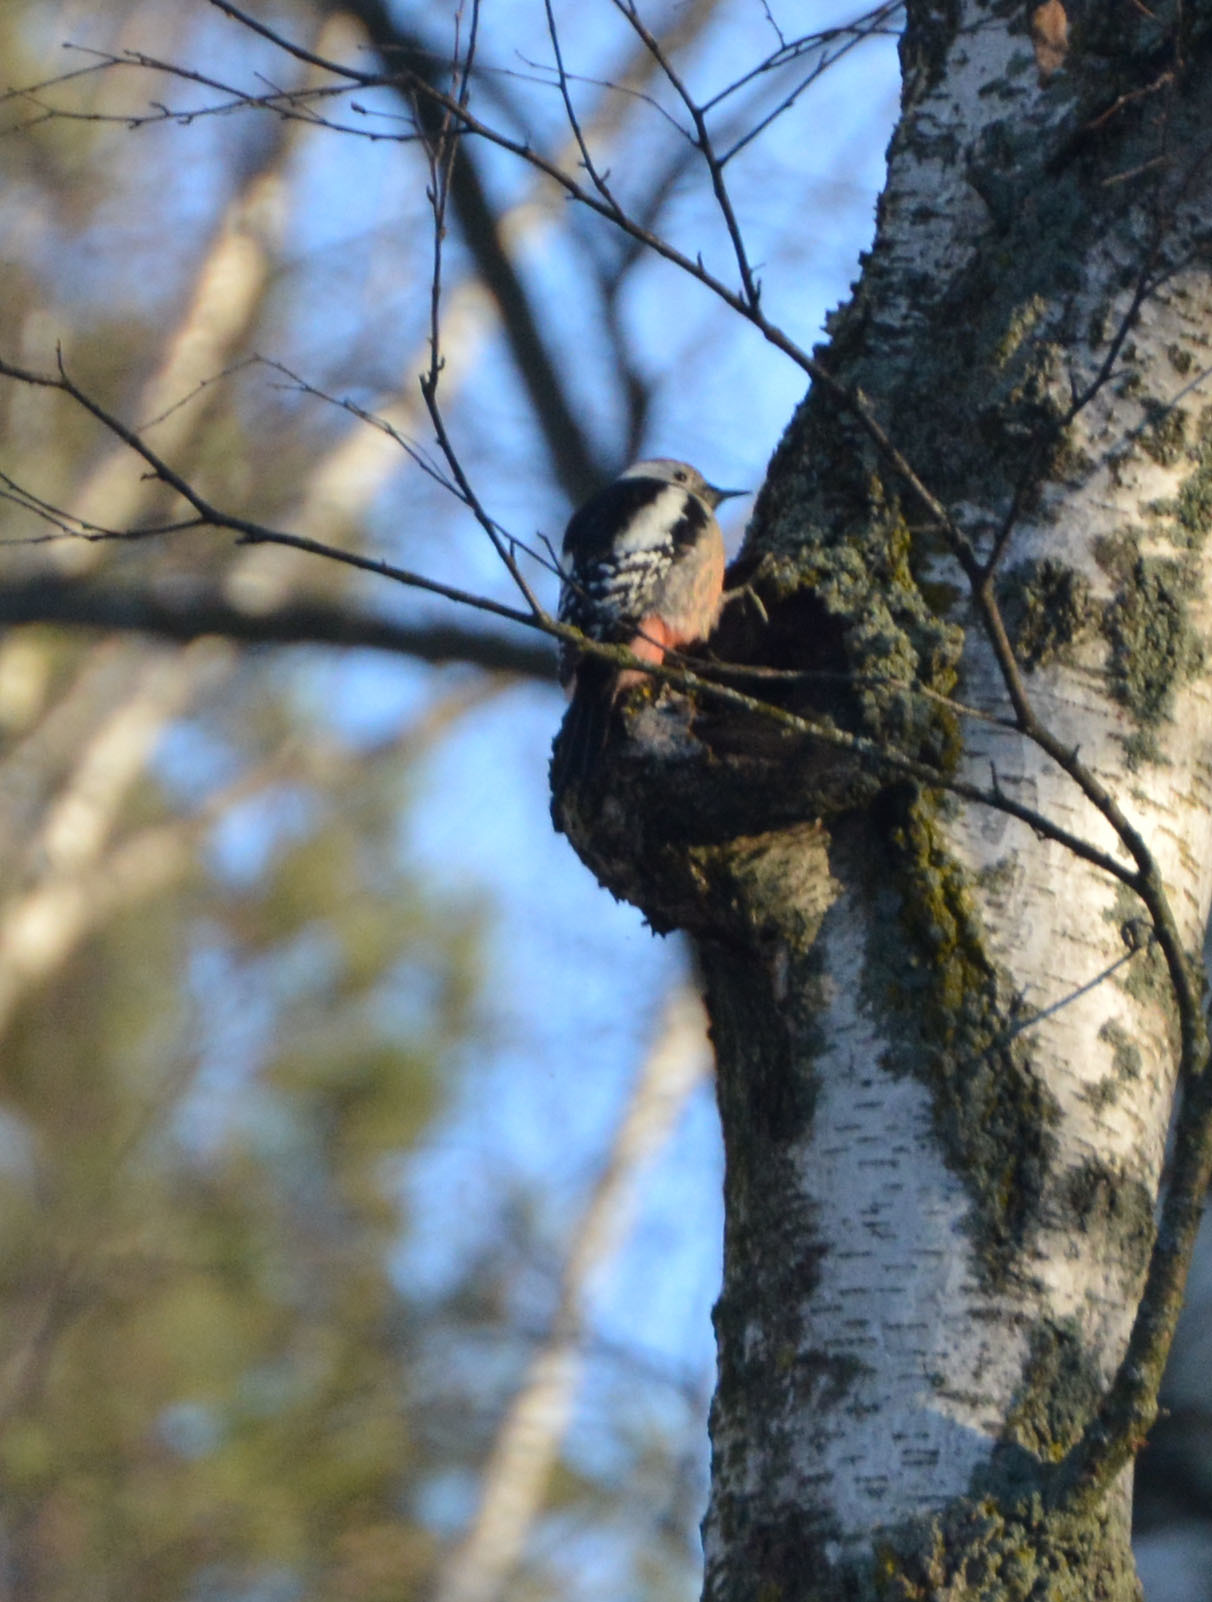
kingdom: Animalia
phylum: Chordata
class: Aves
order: Piciformes
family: Picidae
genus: Dendrocoptes
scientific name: Dendrocoptes medius
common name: Middle spotted woodpecker
